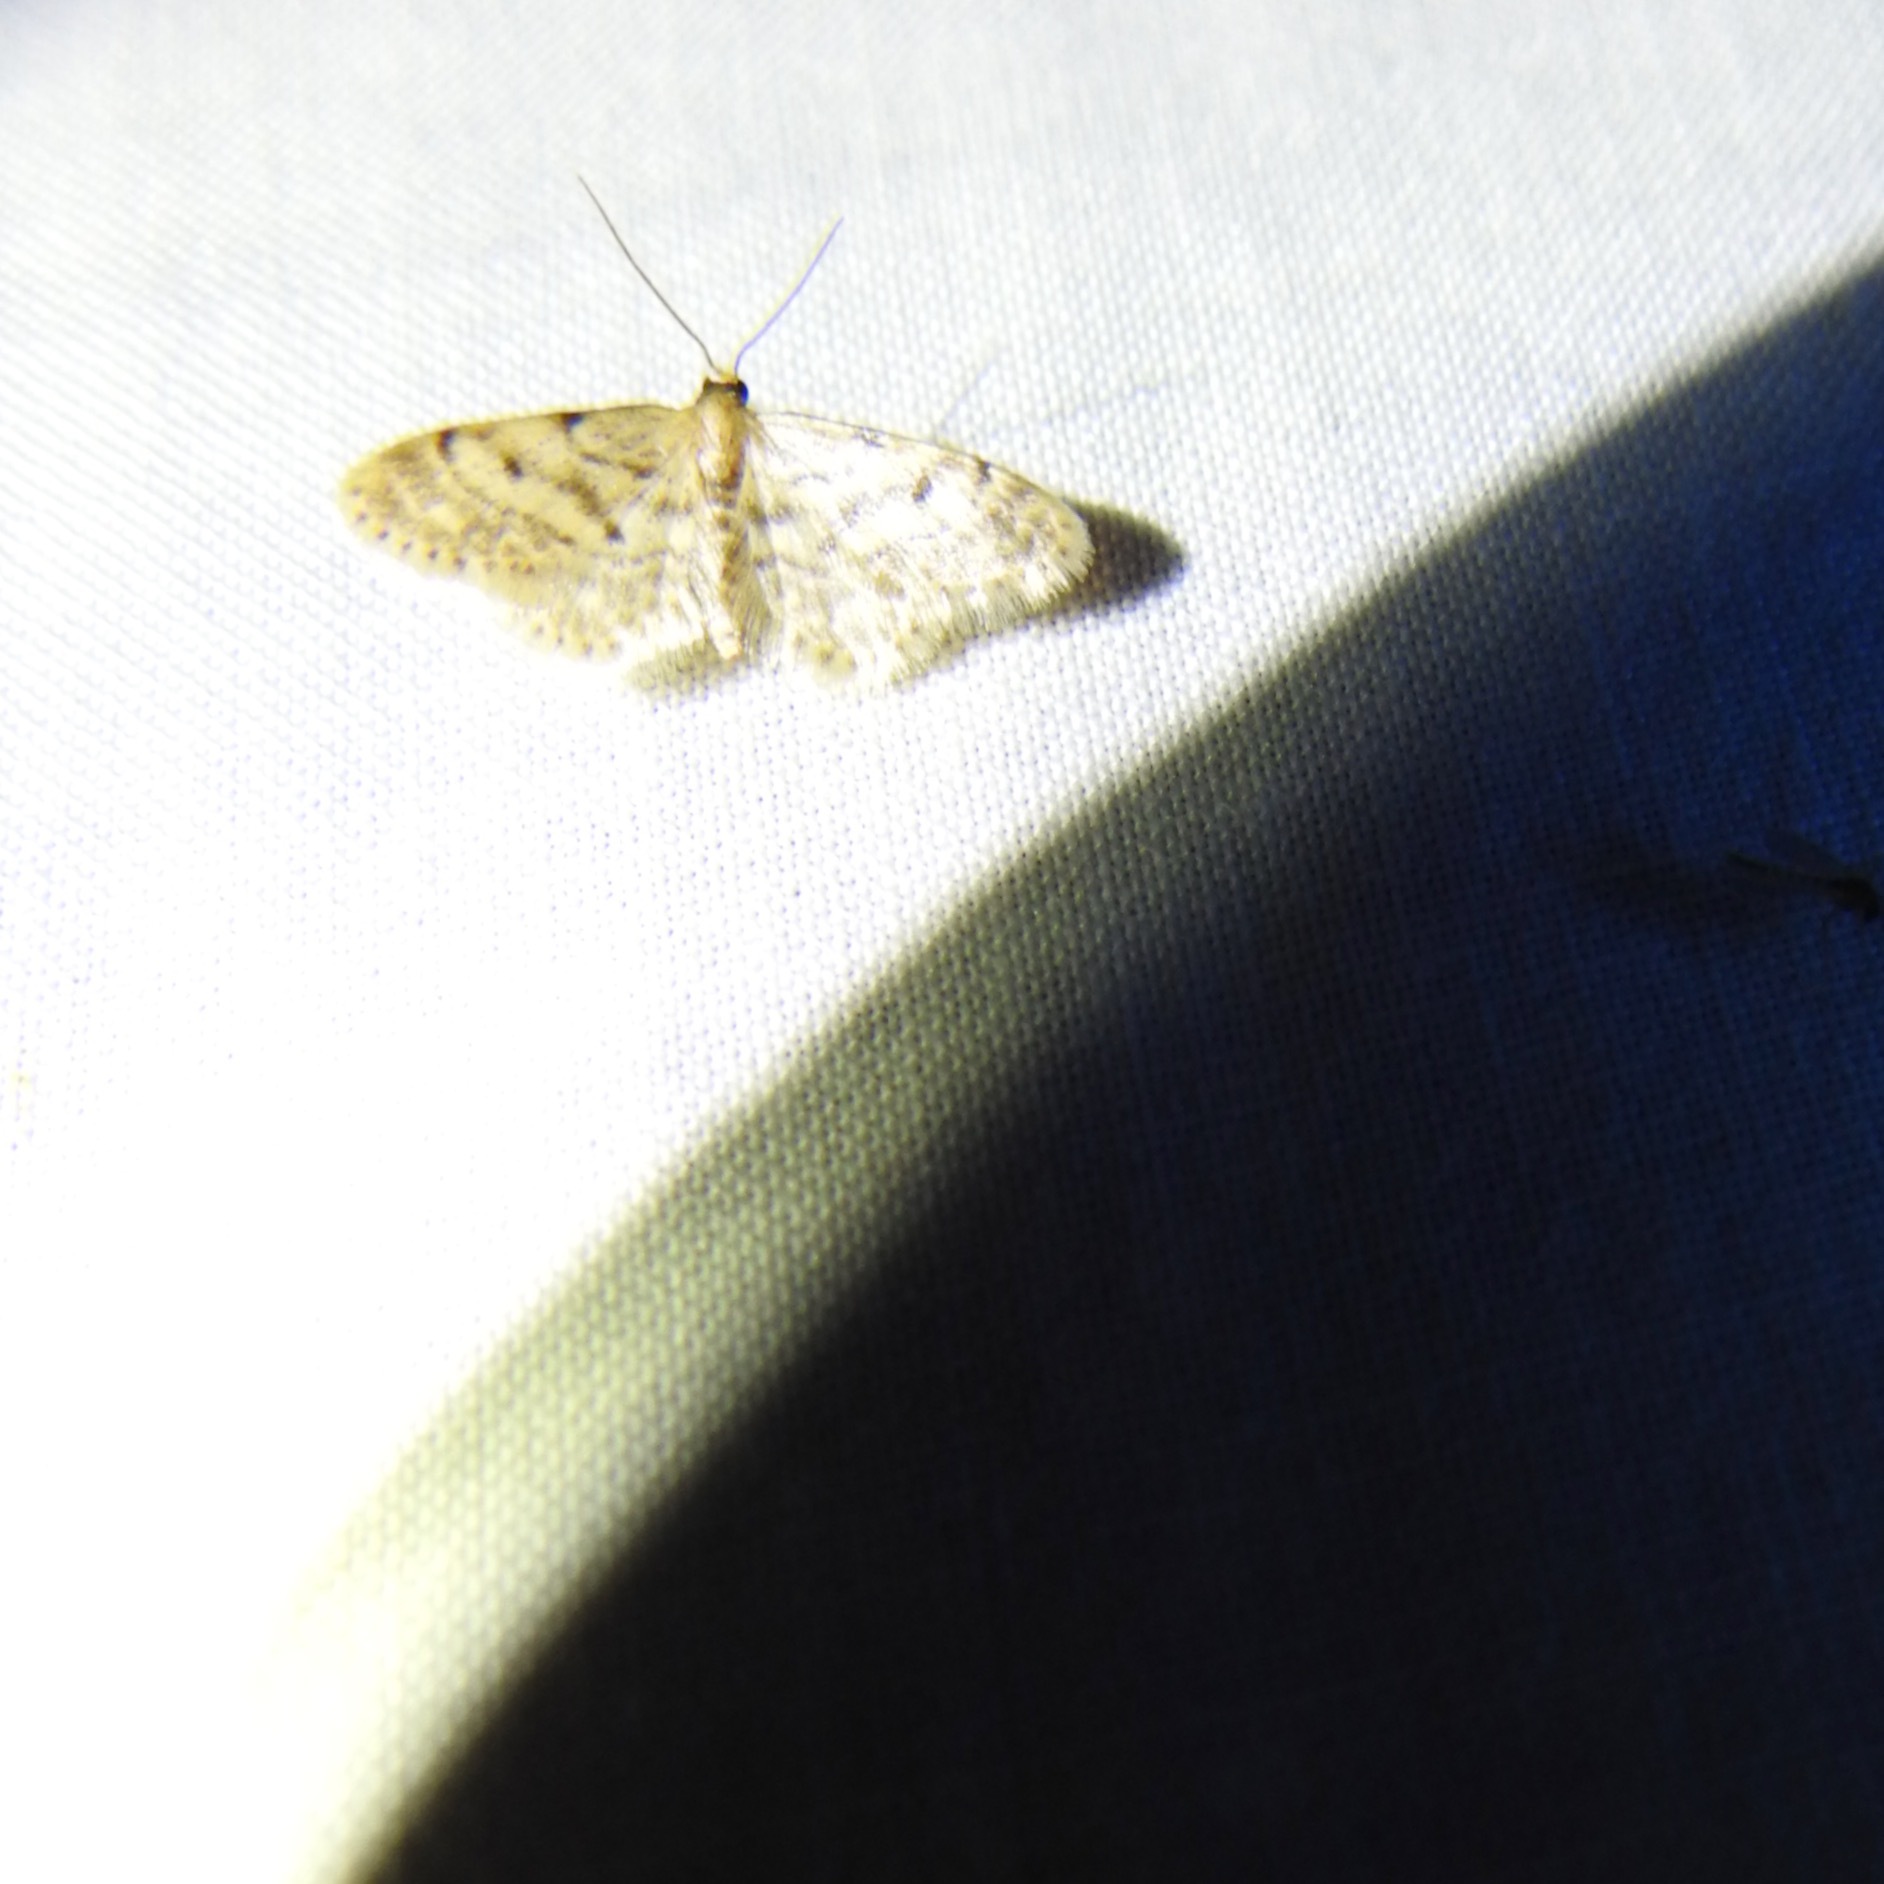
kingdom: Animalia
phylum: Arthropoda
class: Insecta
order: Lepidoptera
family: Geometridae
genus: Idaea
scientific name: Idaea bonifata
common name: Fortunate wave
